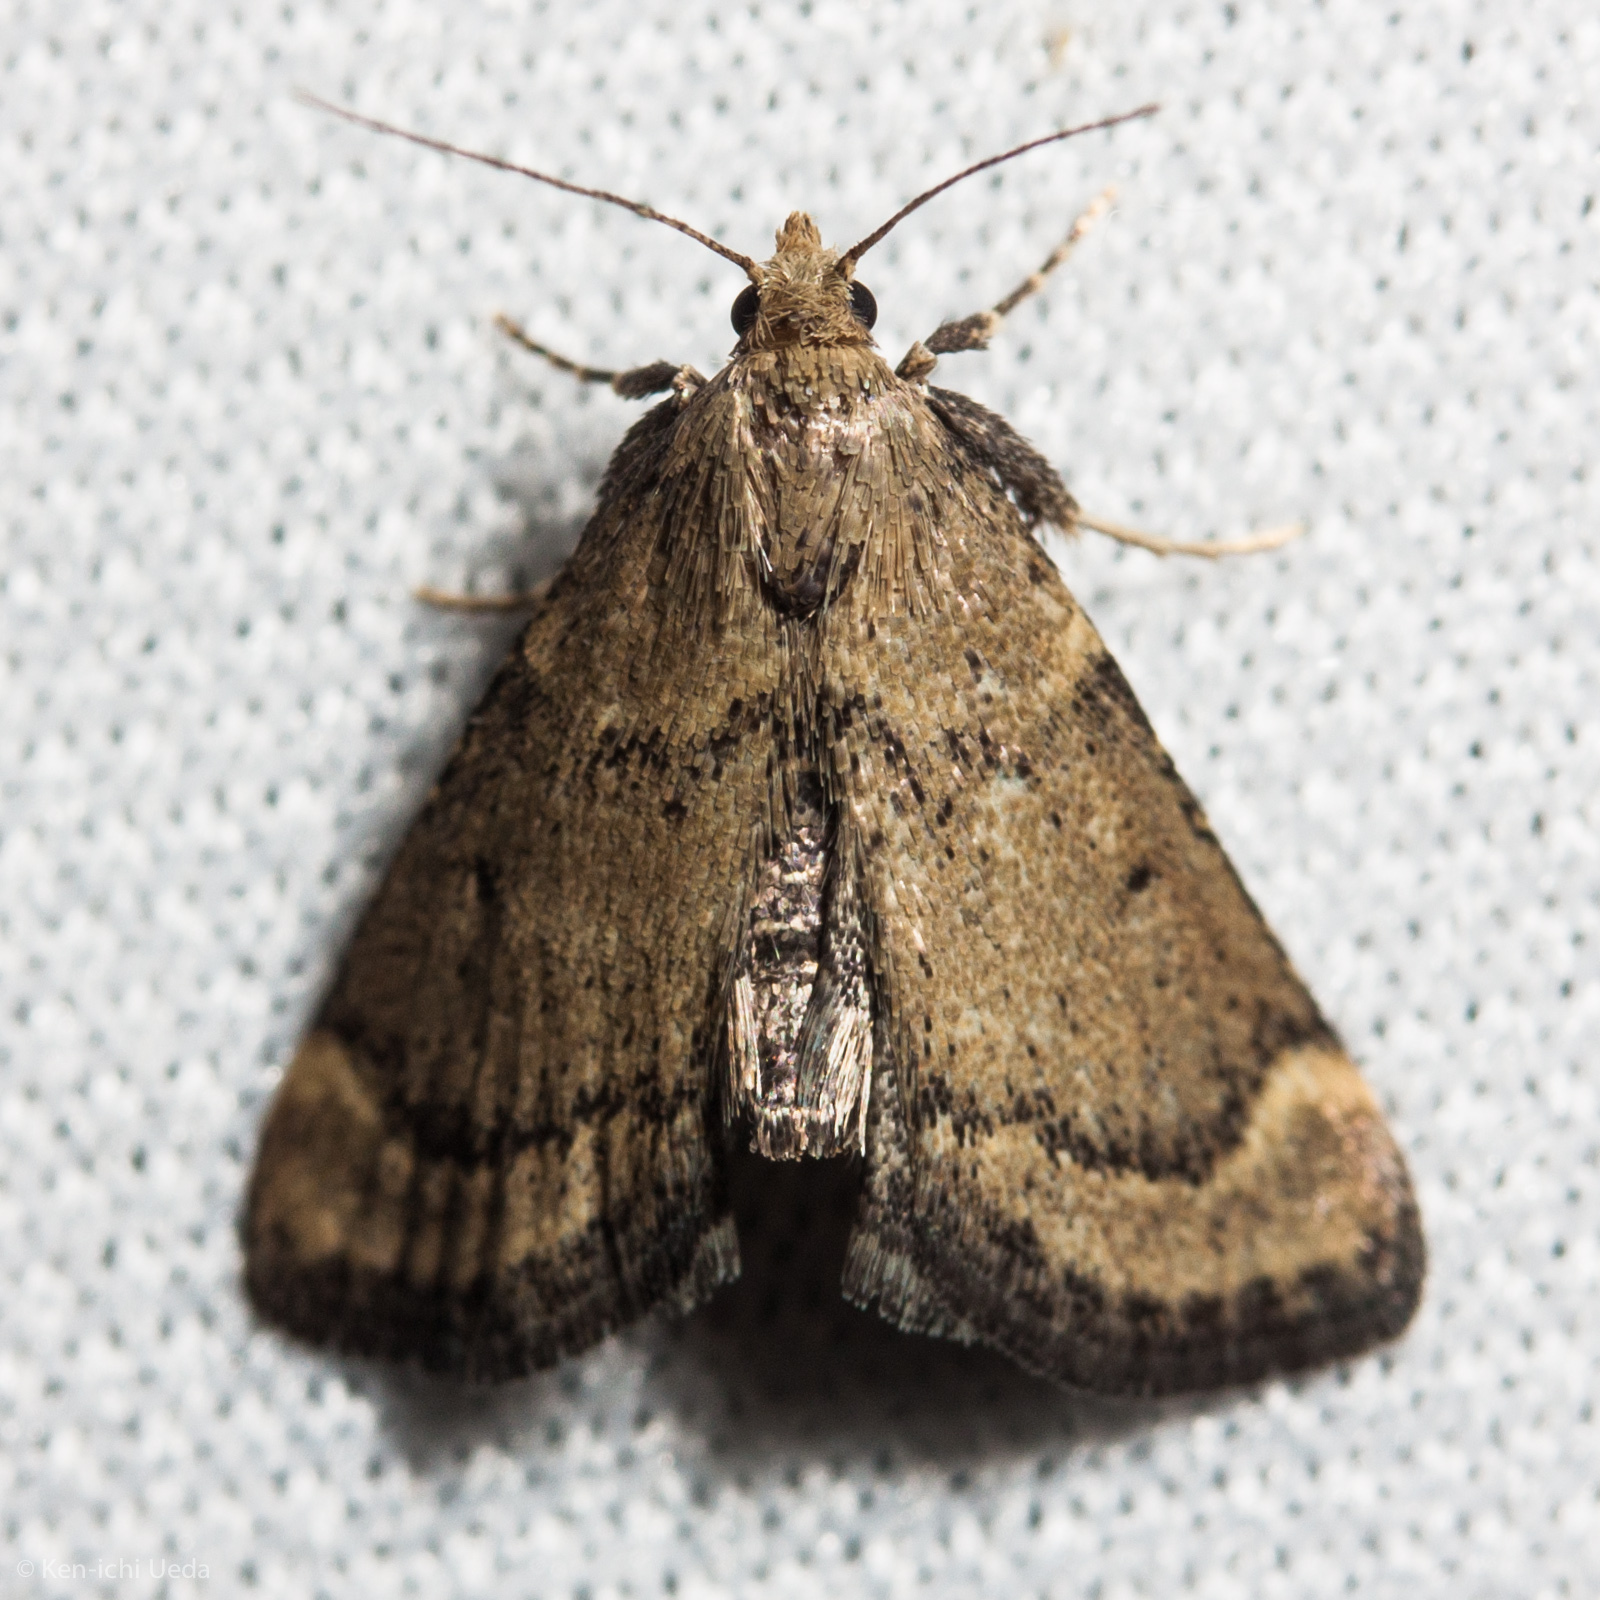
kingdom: Animalia
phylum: Arthropoda
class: Insecta
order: Lepidoptera
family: Pyralidae
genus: Hypsopygia
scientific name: Hypsopygia phoezalis
